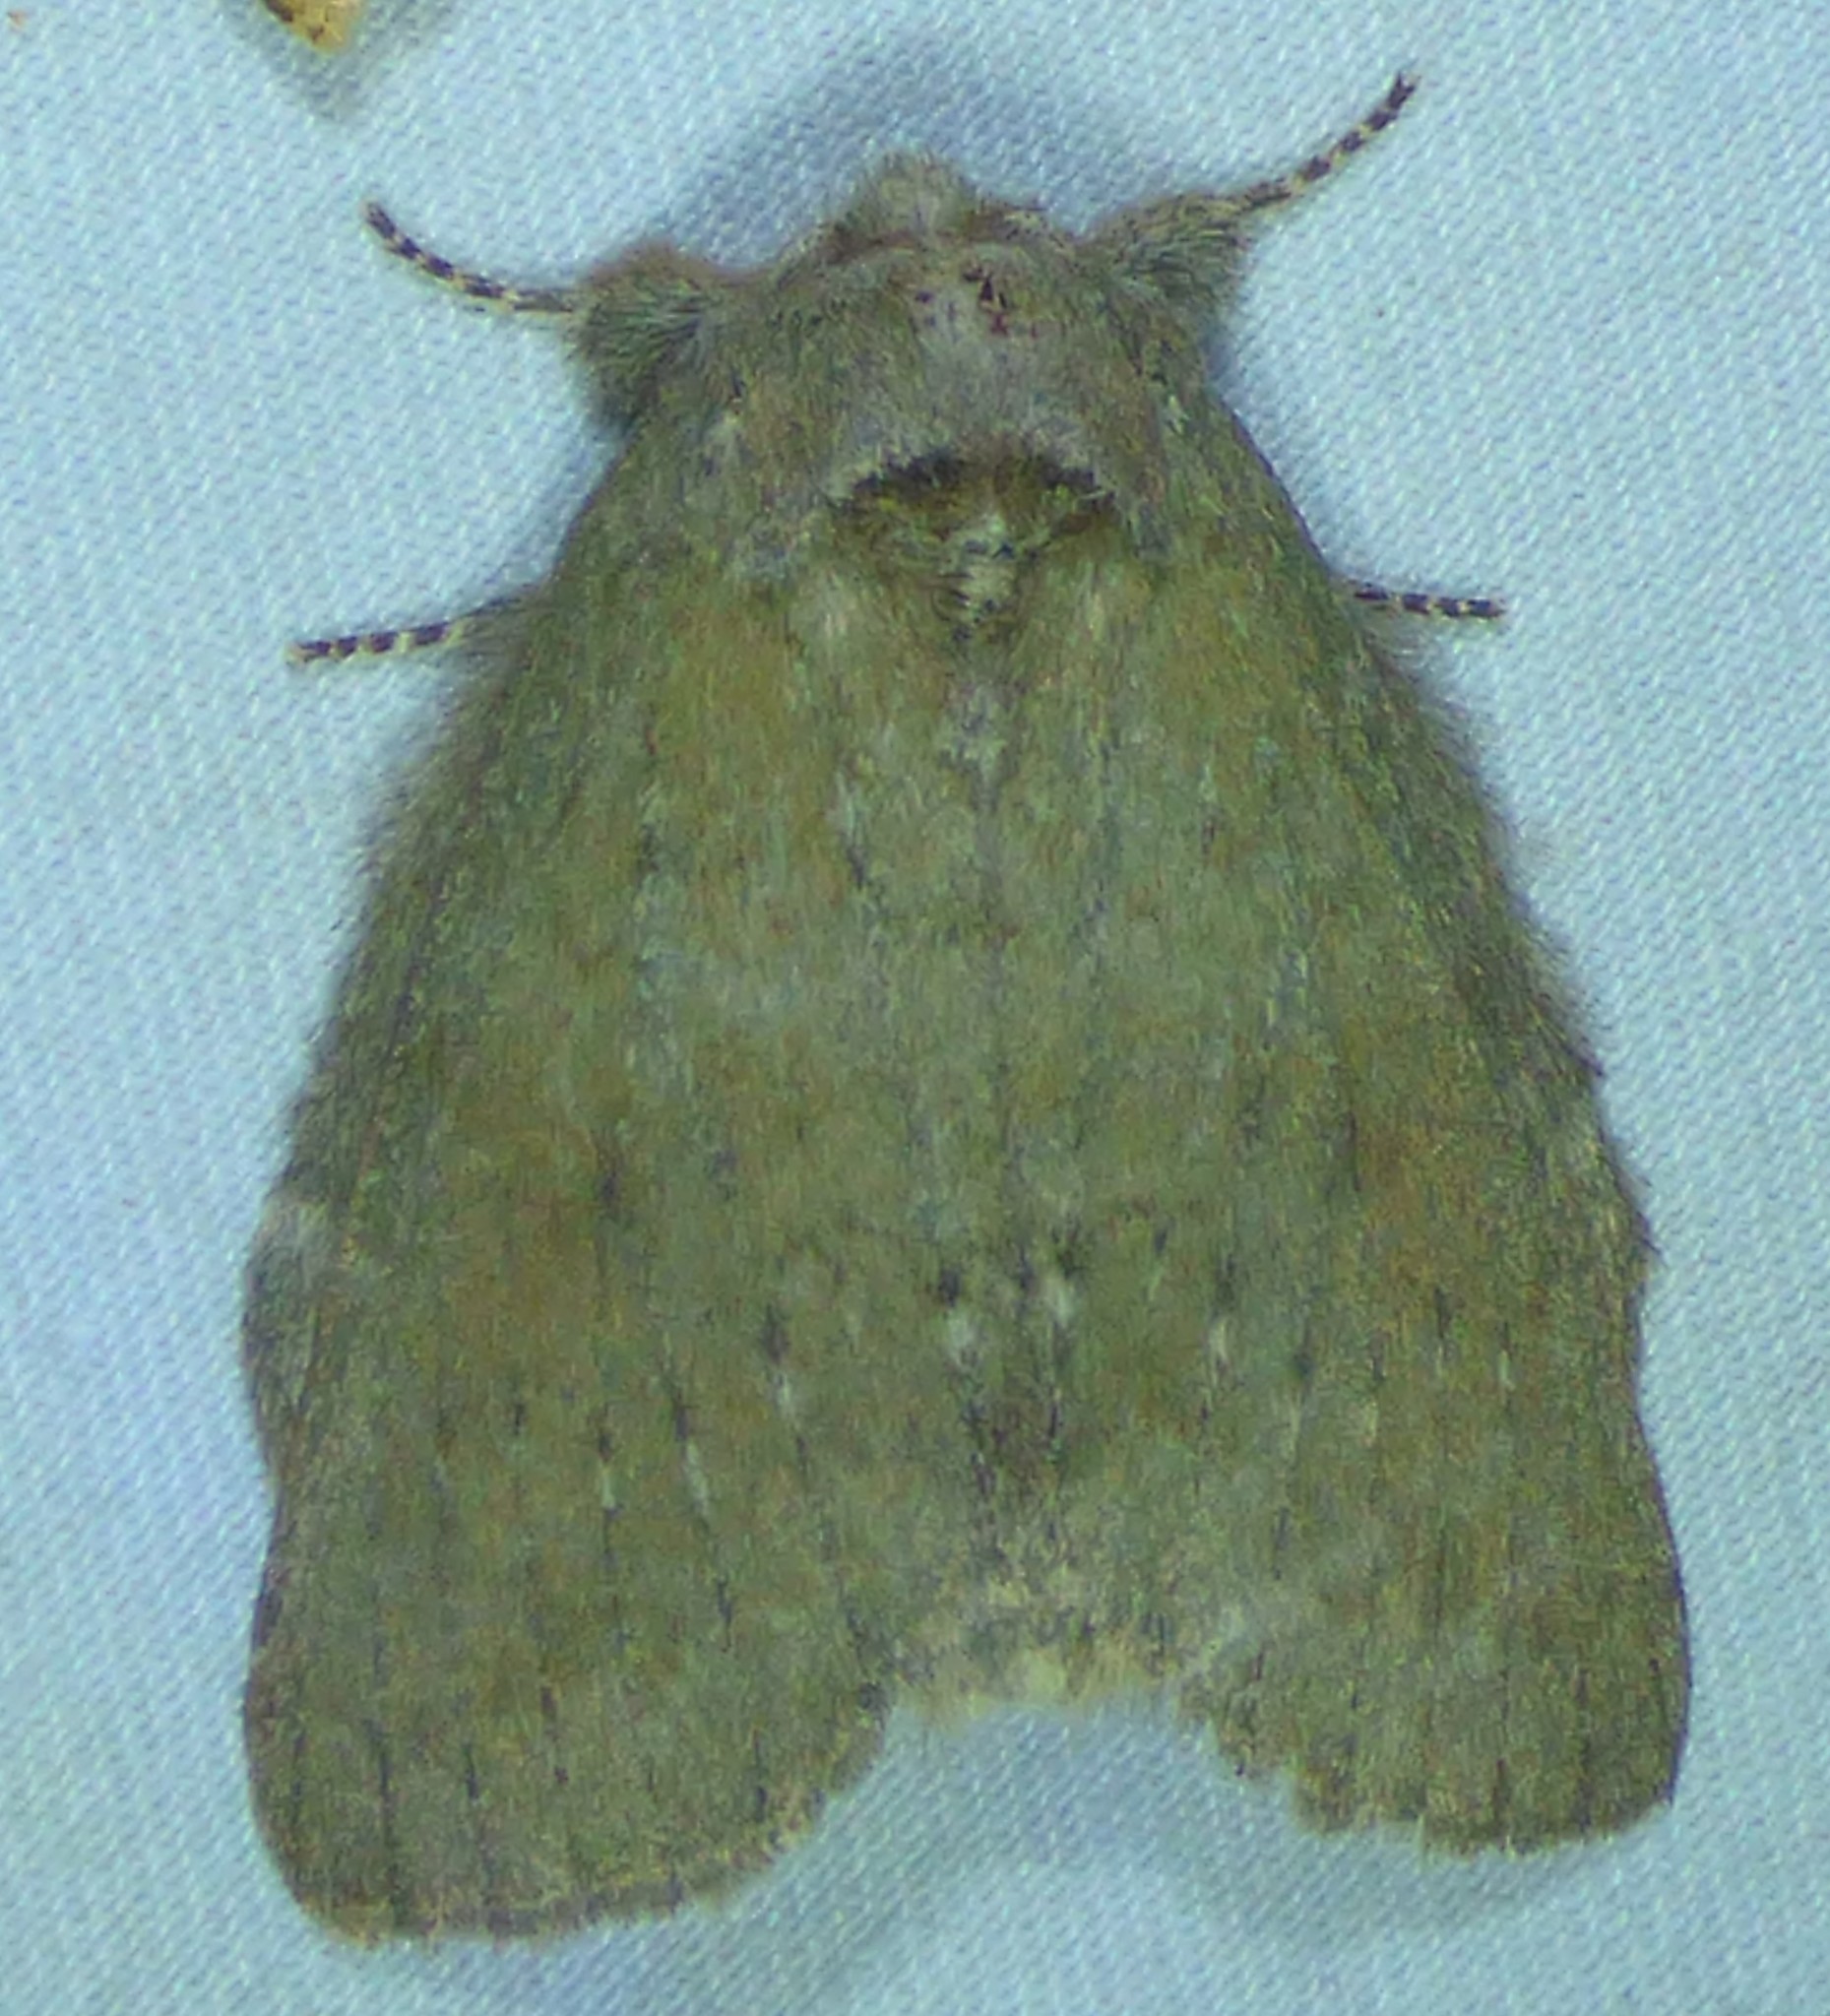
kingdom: Animalia
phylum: Arthropoda
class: Insecta
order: Lepidoptera
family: Notodontidae
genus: Misogada
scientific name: Misogada unicolor
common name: Drab prominent
